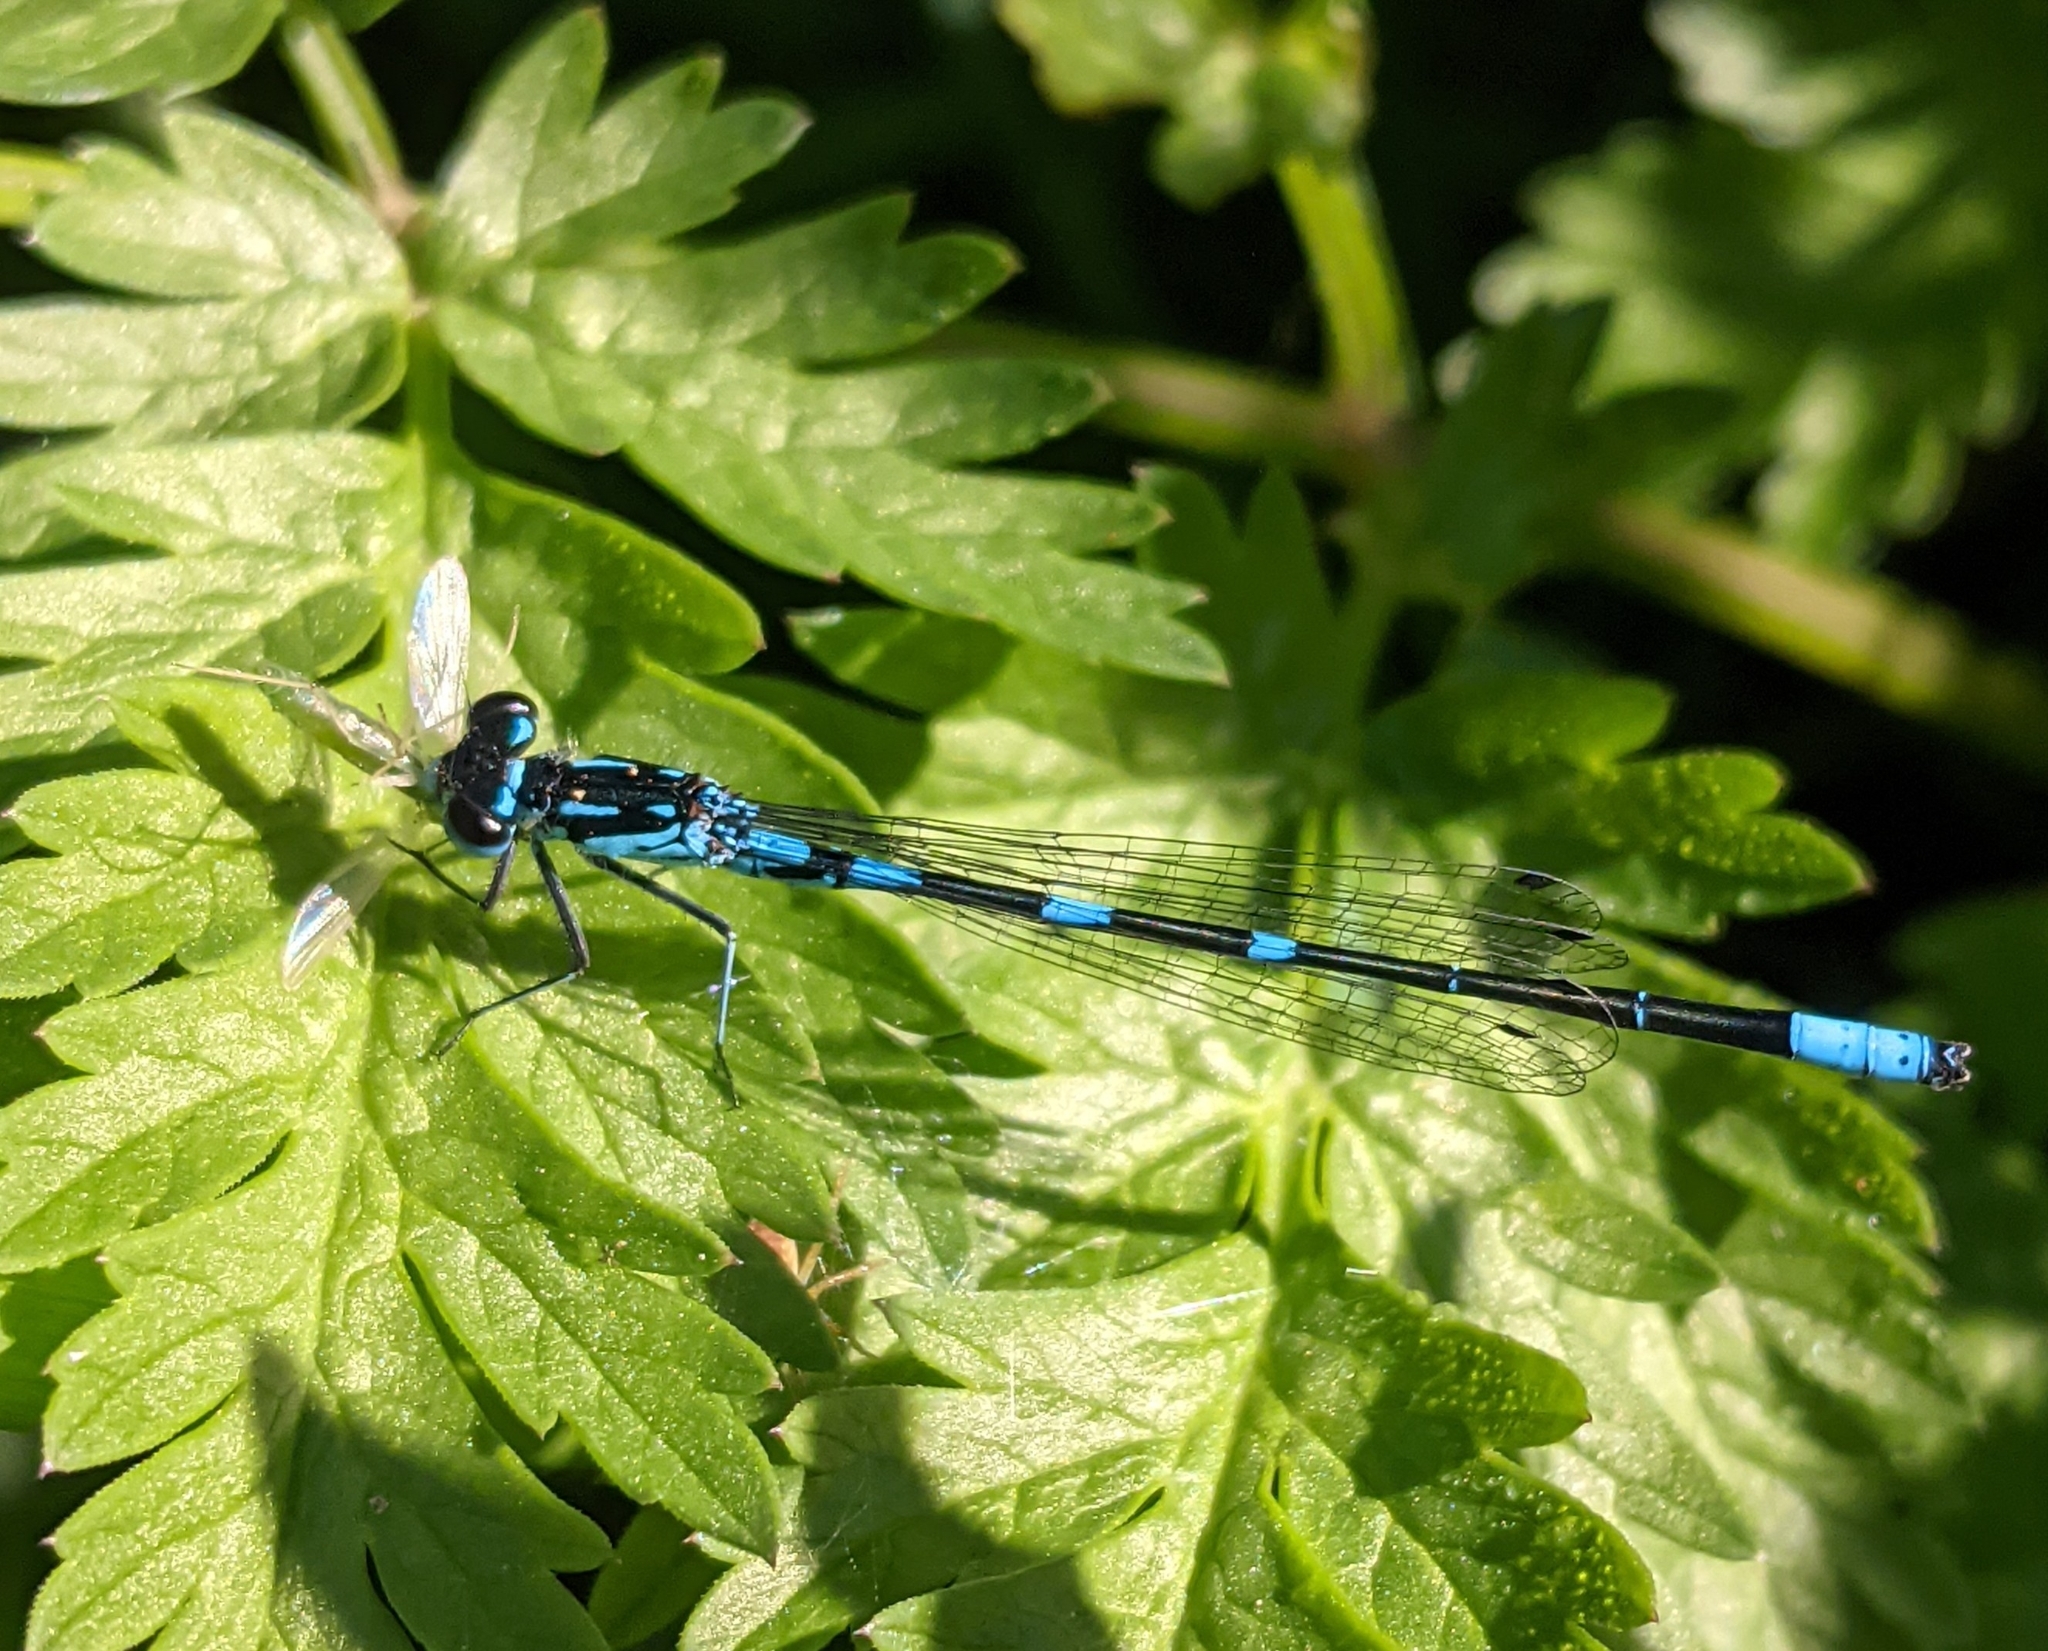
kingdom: Animalia
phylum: Arthropoda
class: Insecta
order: Odonata
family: Coenagrionidae
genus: Coenagrion
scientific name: Coenagrion pulchellum
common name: Variable bluet
